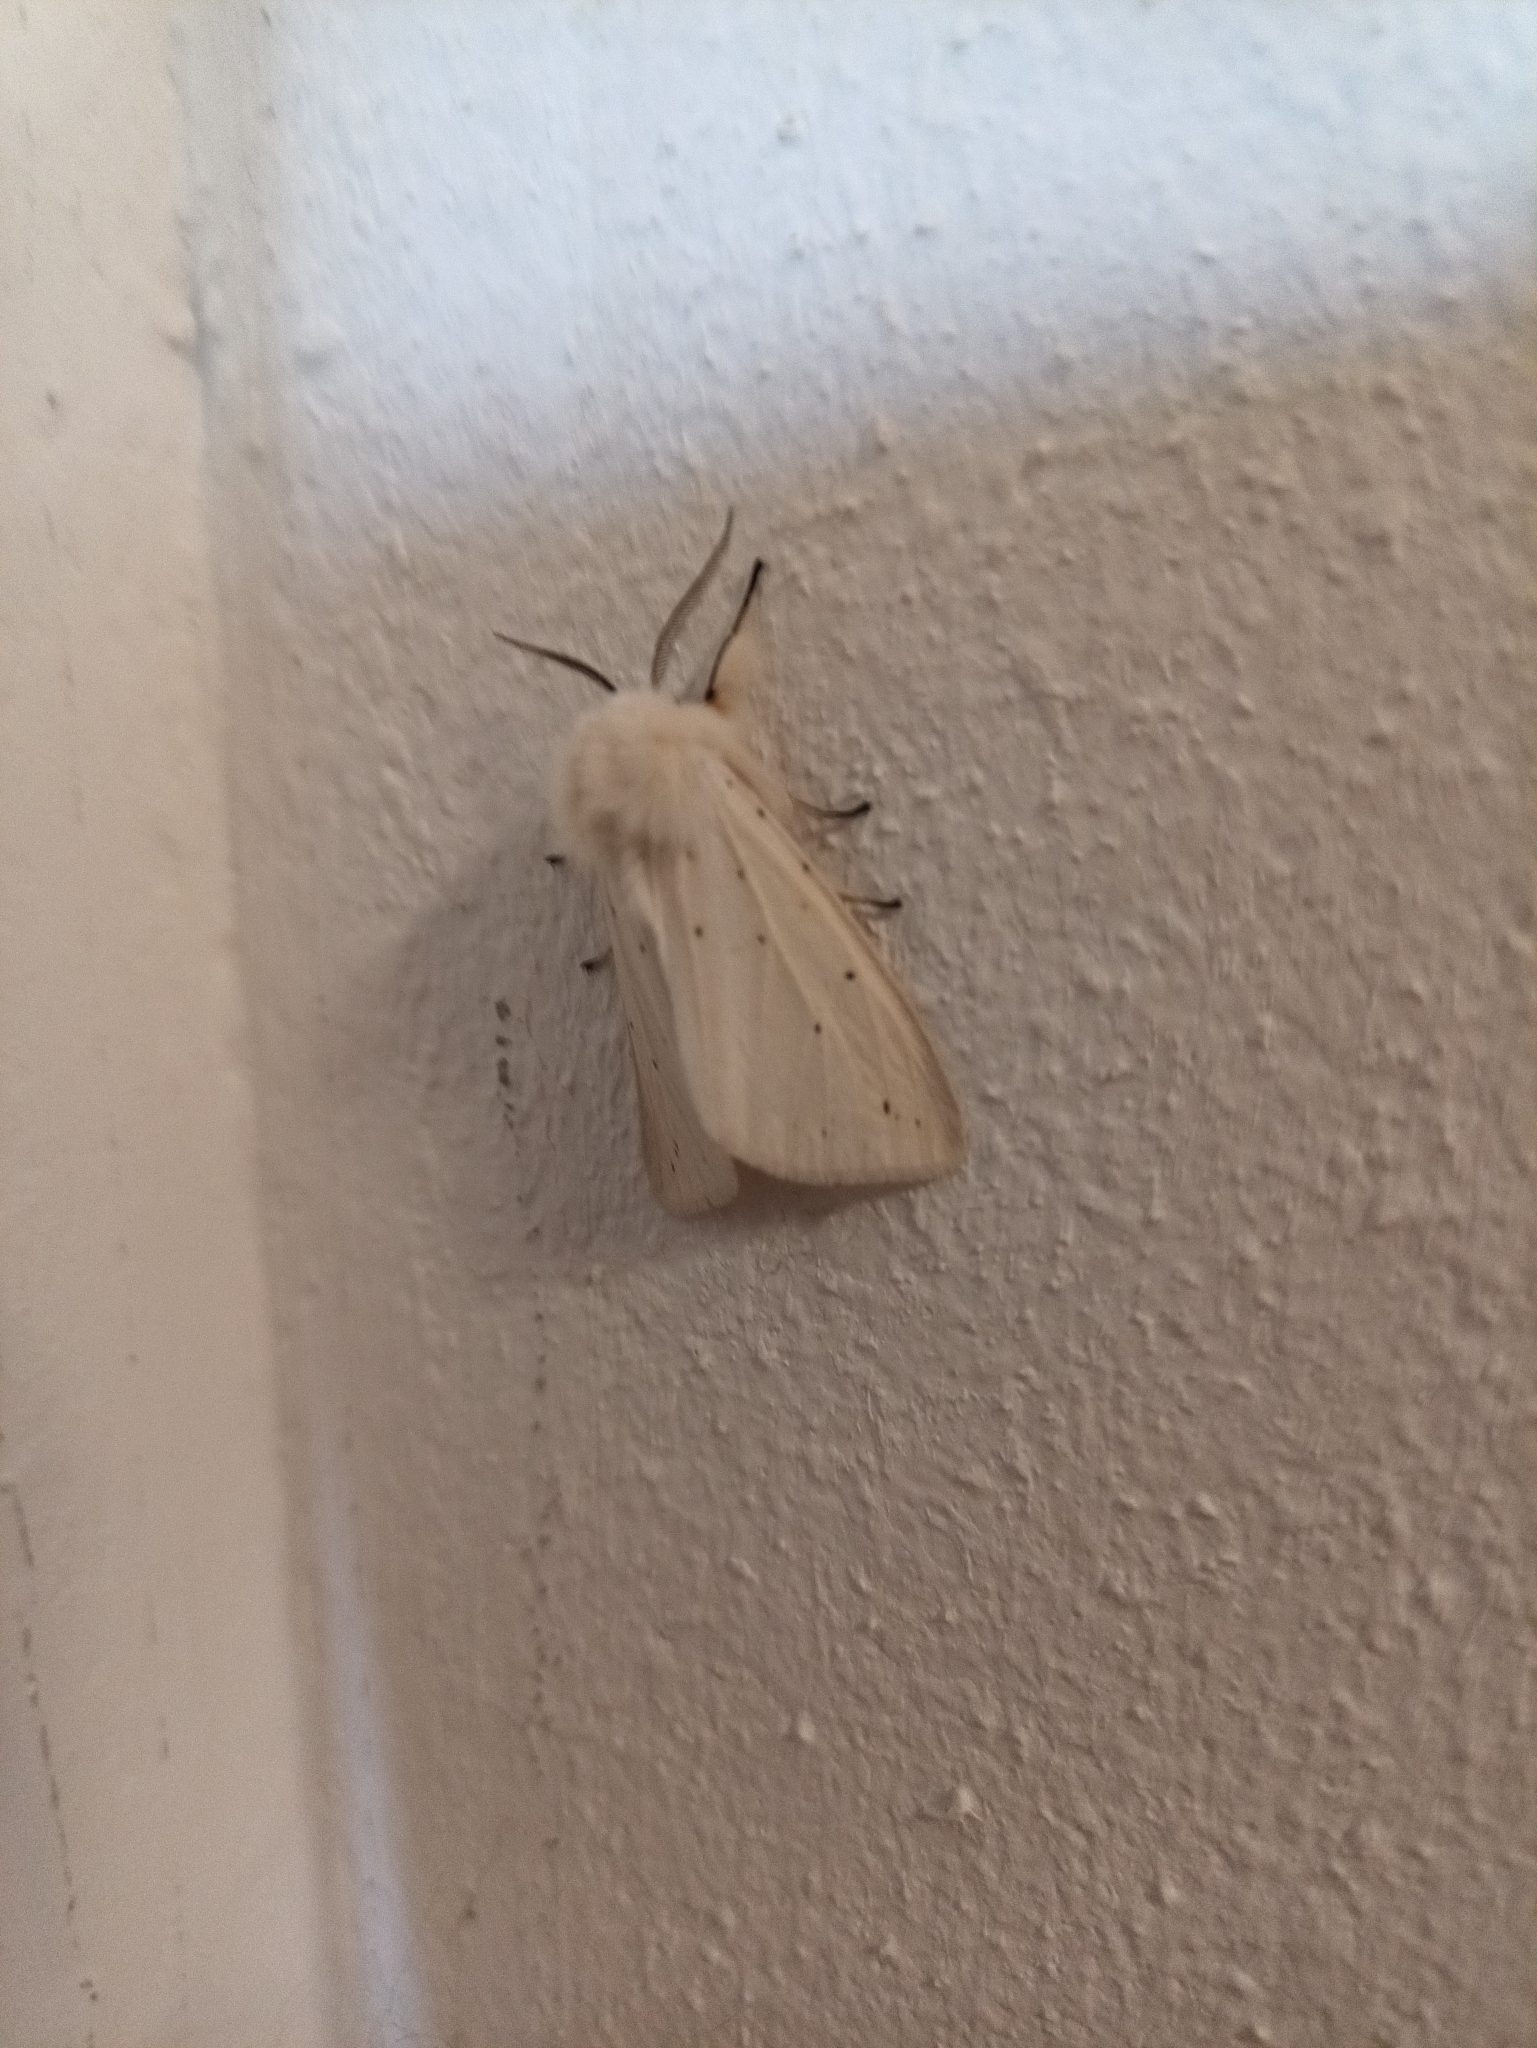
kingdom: Animalia
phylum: Arthropoda
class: Insecta
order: Lepidoptera
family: Erebidae
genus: Diaphora
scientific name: Diaphora mendica
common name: Muslin moth
